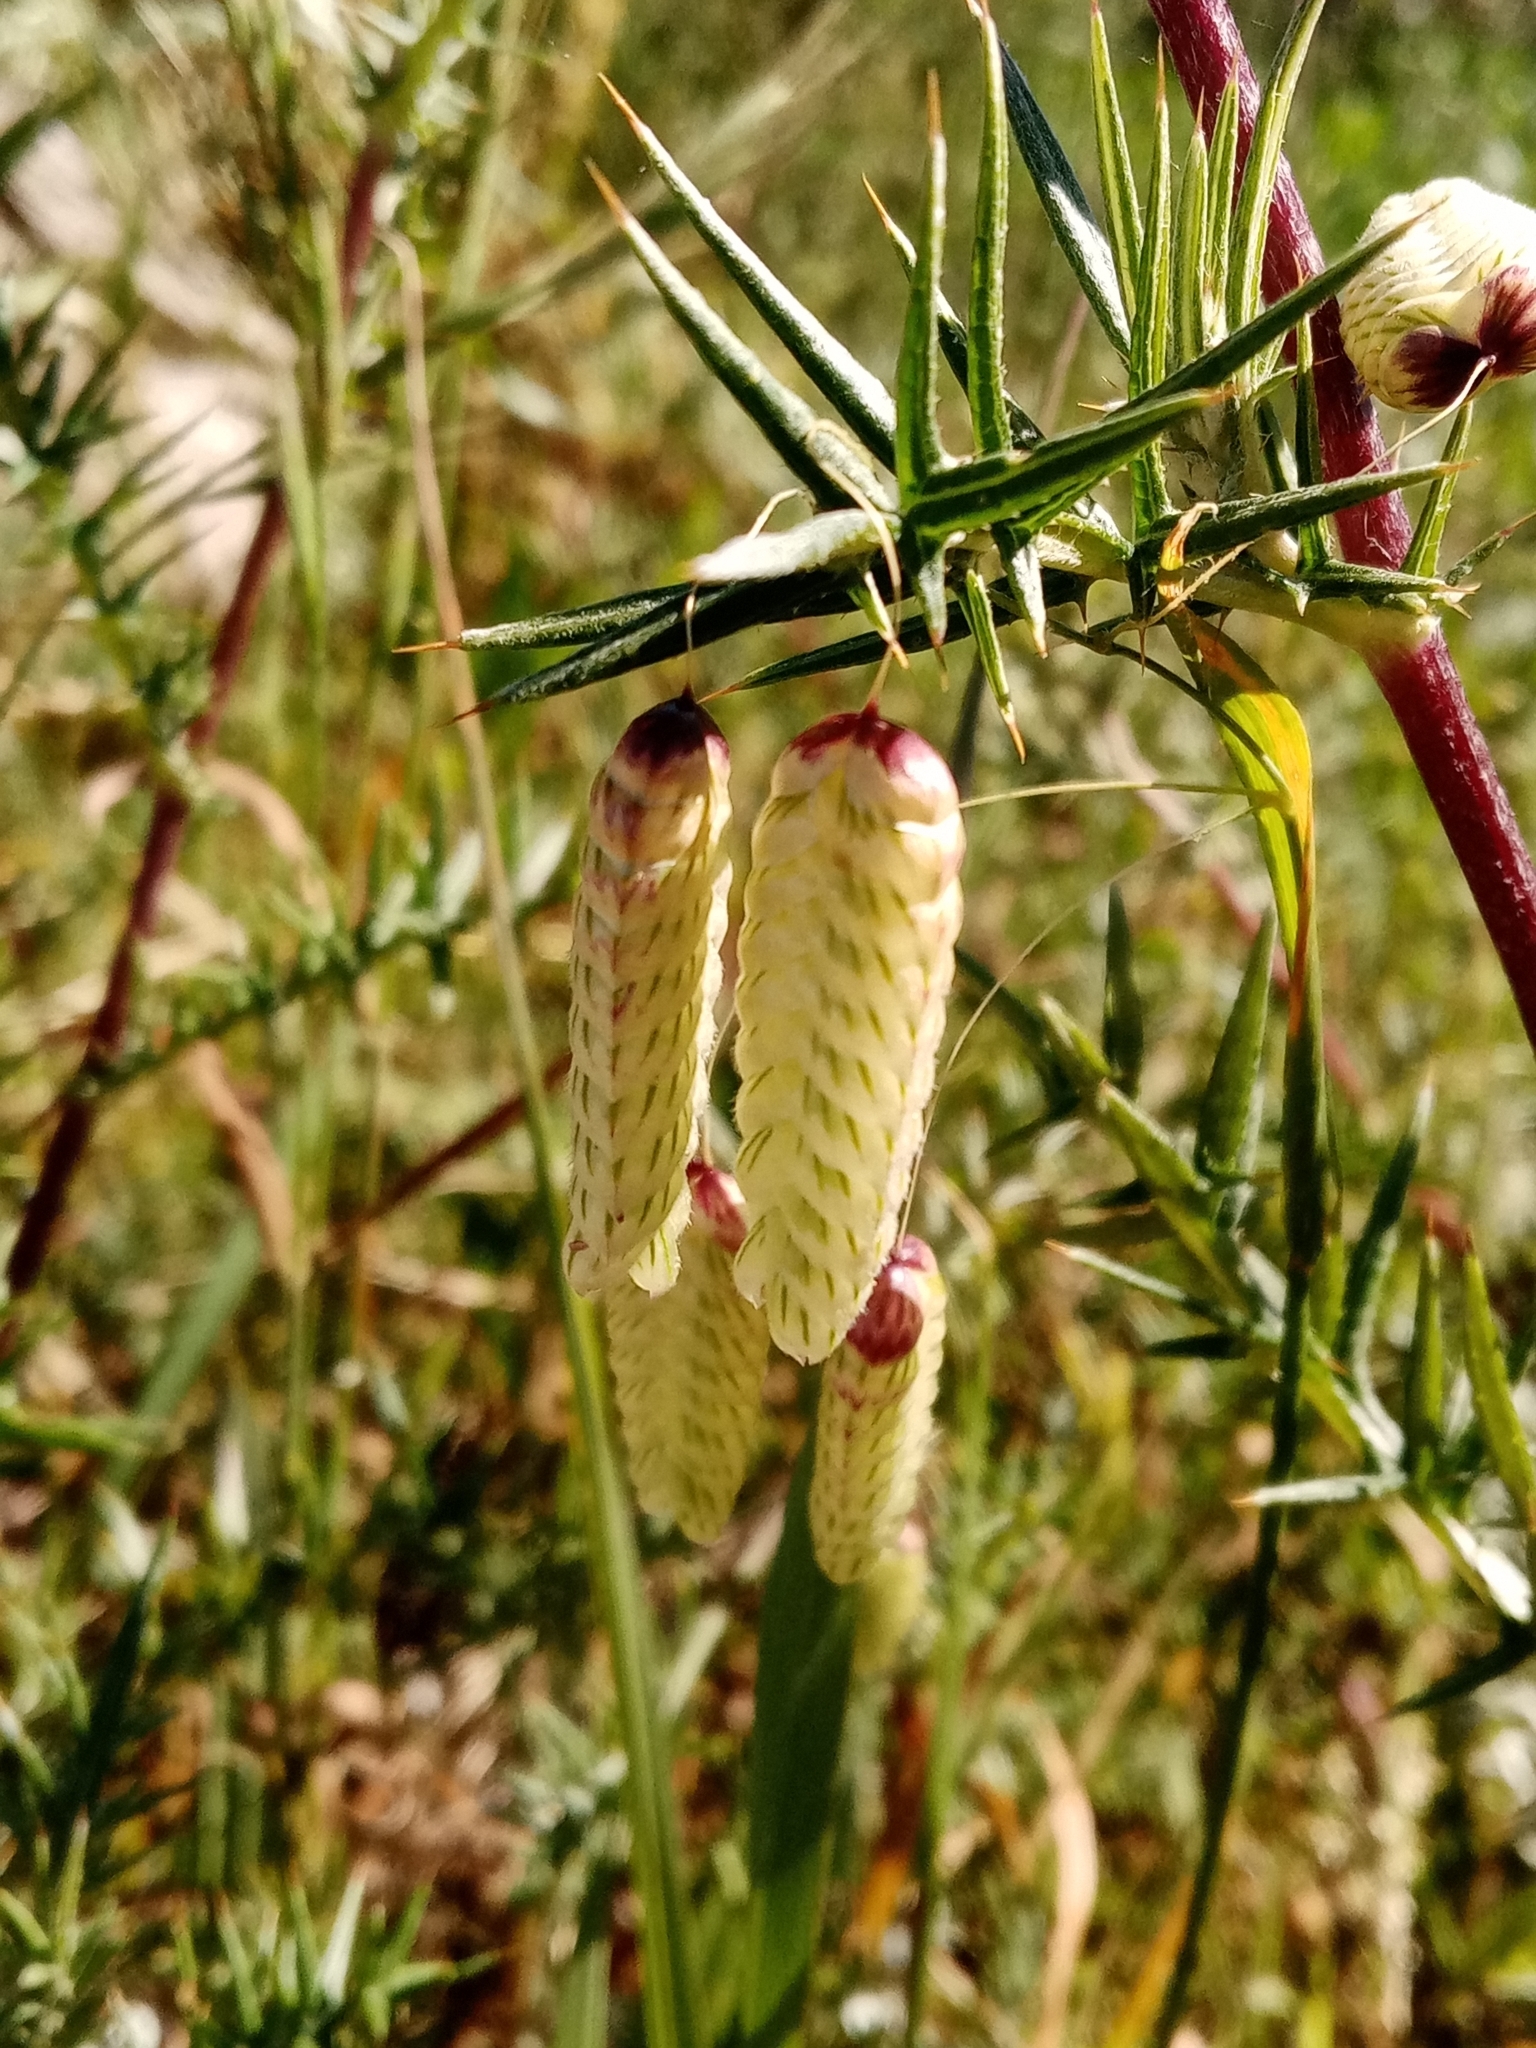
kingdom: Plantae
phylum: Tracheophyta
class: Liliopsida
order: Poales
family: Poaceae
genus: Briza
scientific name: Briza maxima
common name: Big quakinggrass
